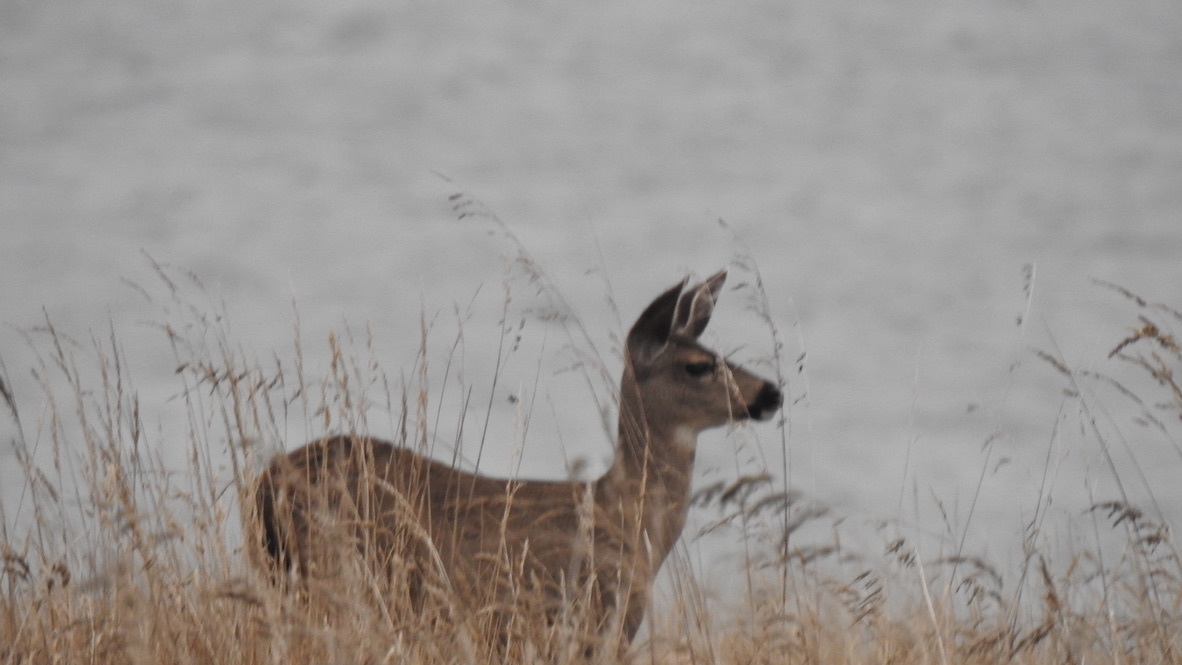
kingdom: Animalia
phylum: Chordata
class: Mammalia
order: Artiodactyla
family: Cervidae
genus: Odocoileus
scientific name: Odocoileus hemionus
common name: Mule deer
